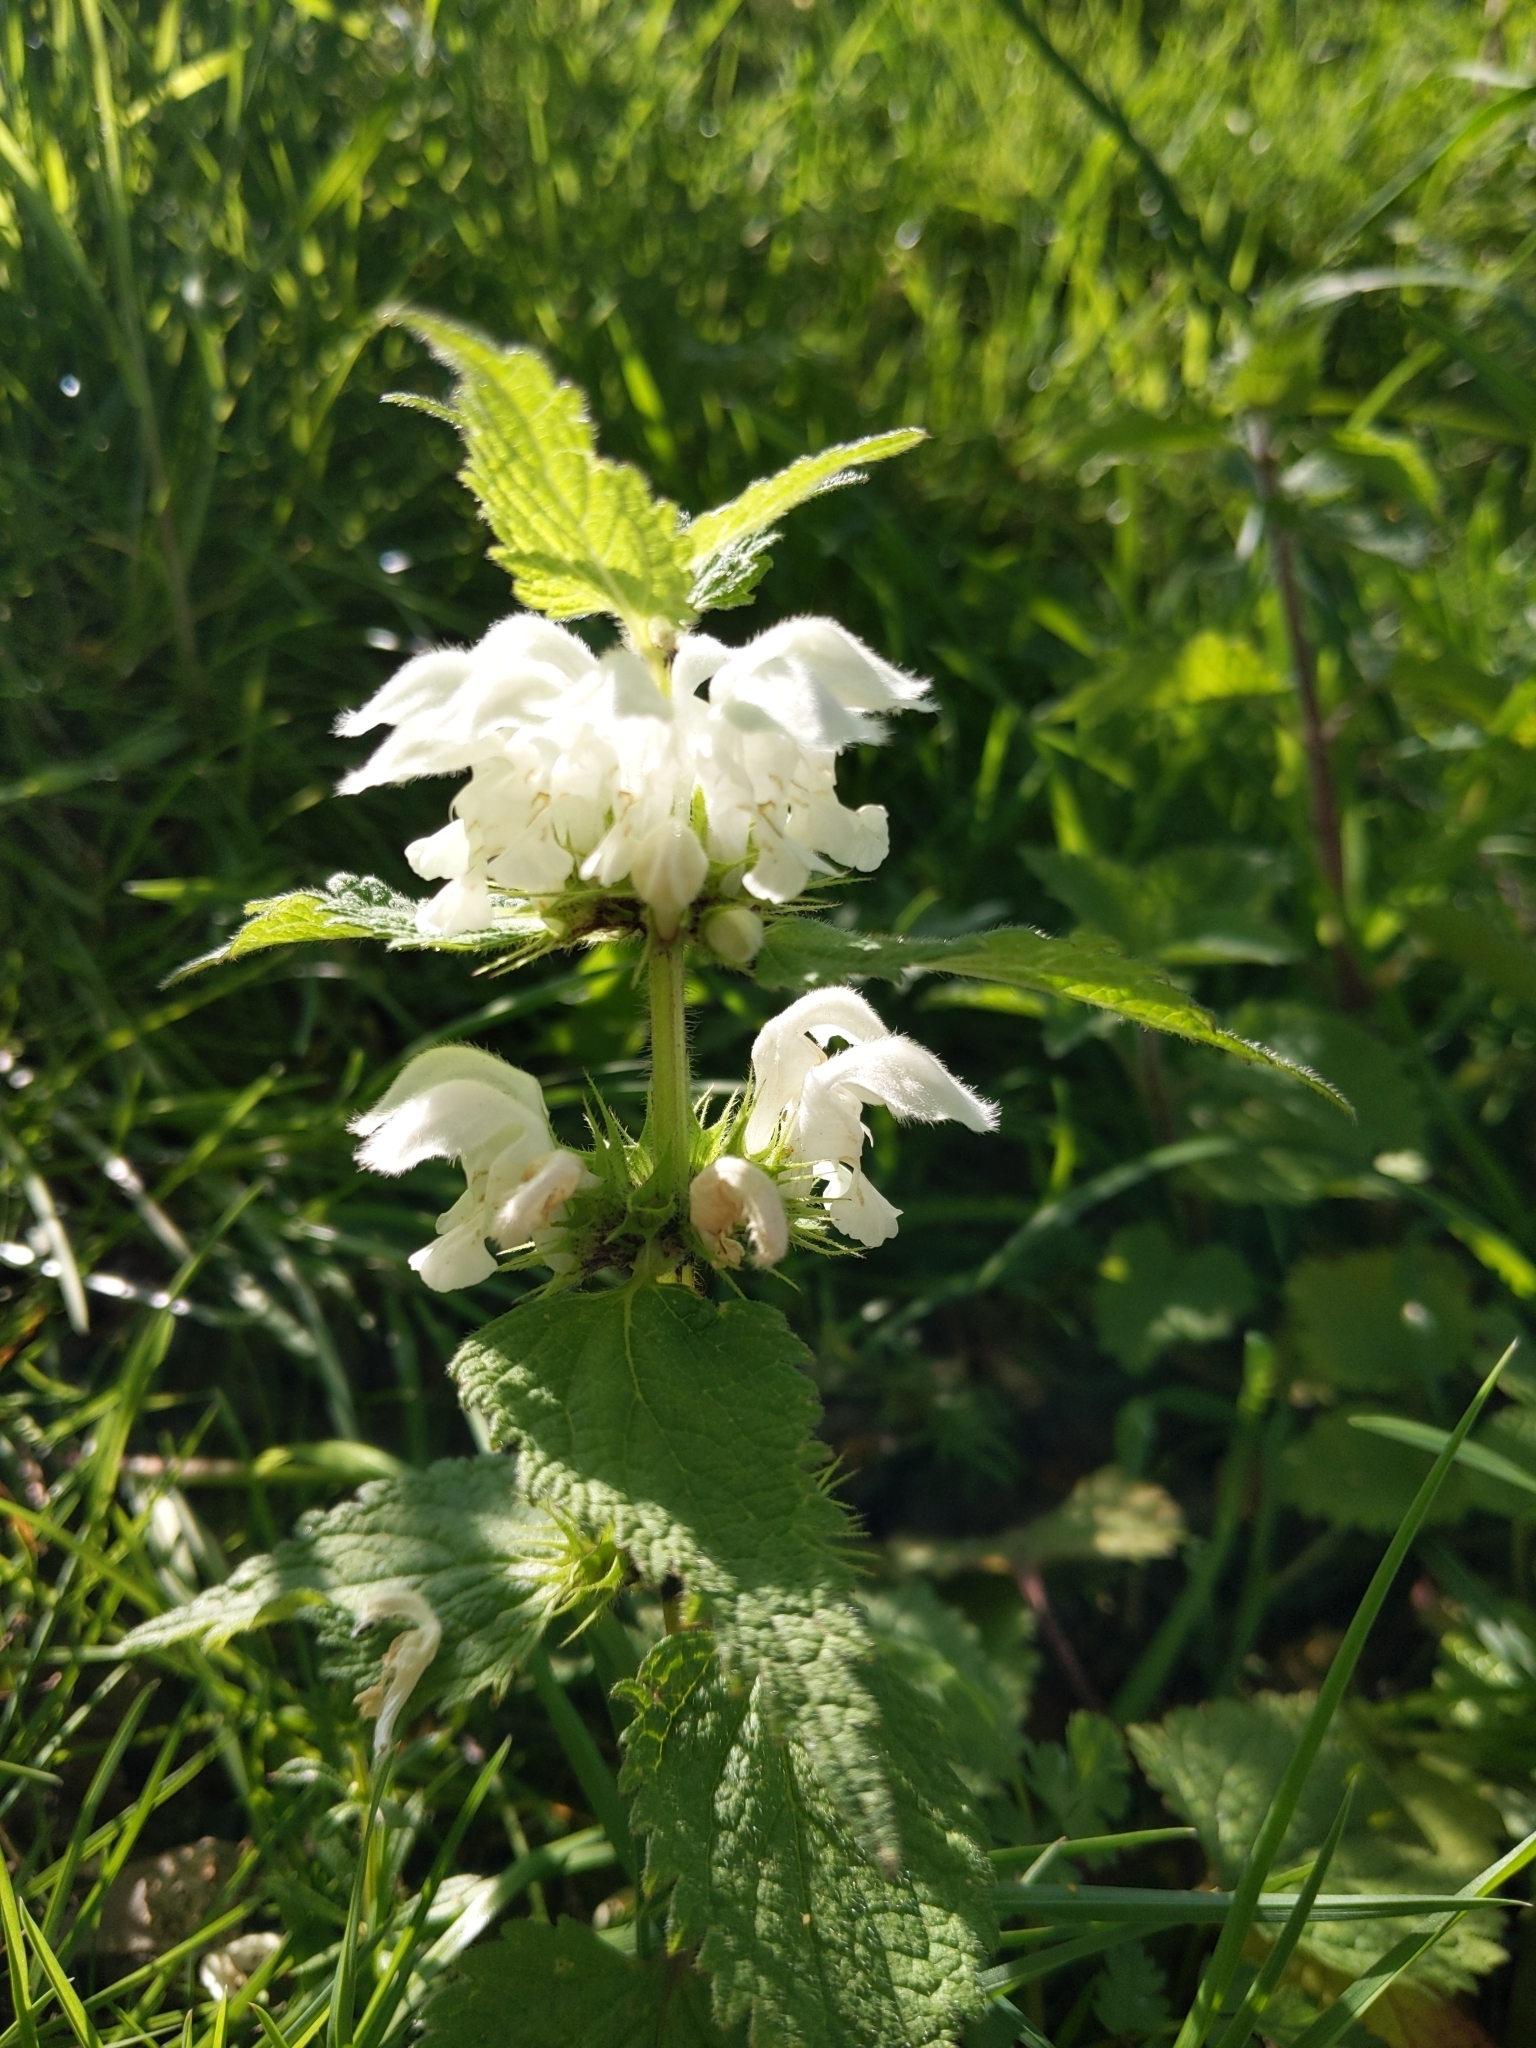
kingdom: Plantae
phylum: Tracheophyta
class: Magnoliopsida
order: Lamiales
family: Lamiaceae
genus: Lamium
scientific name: Lamium album
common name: White dead-nettle
